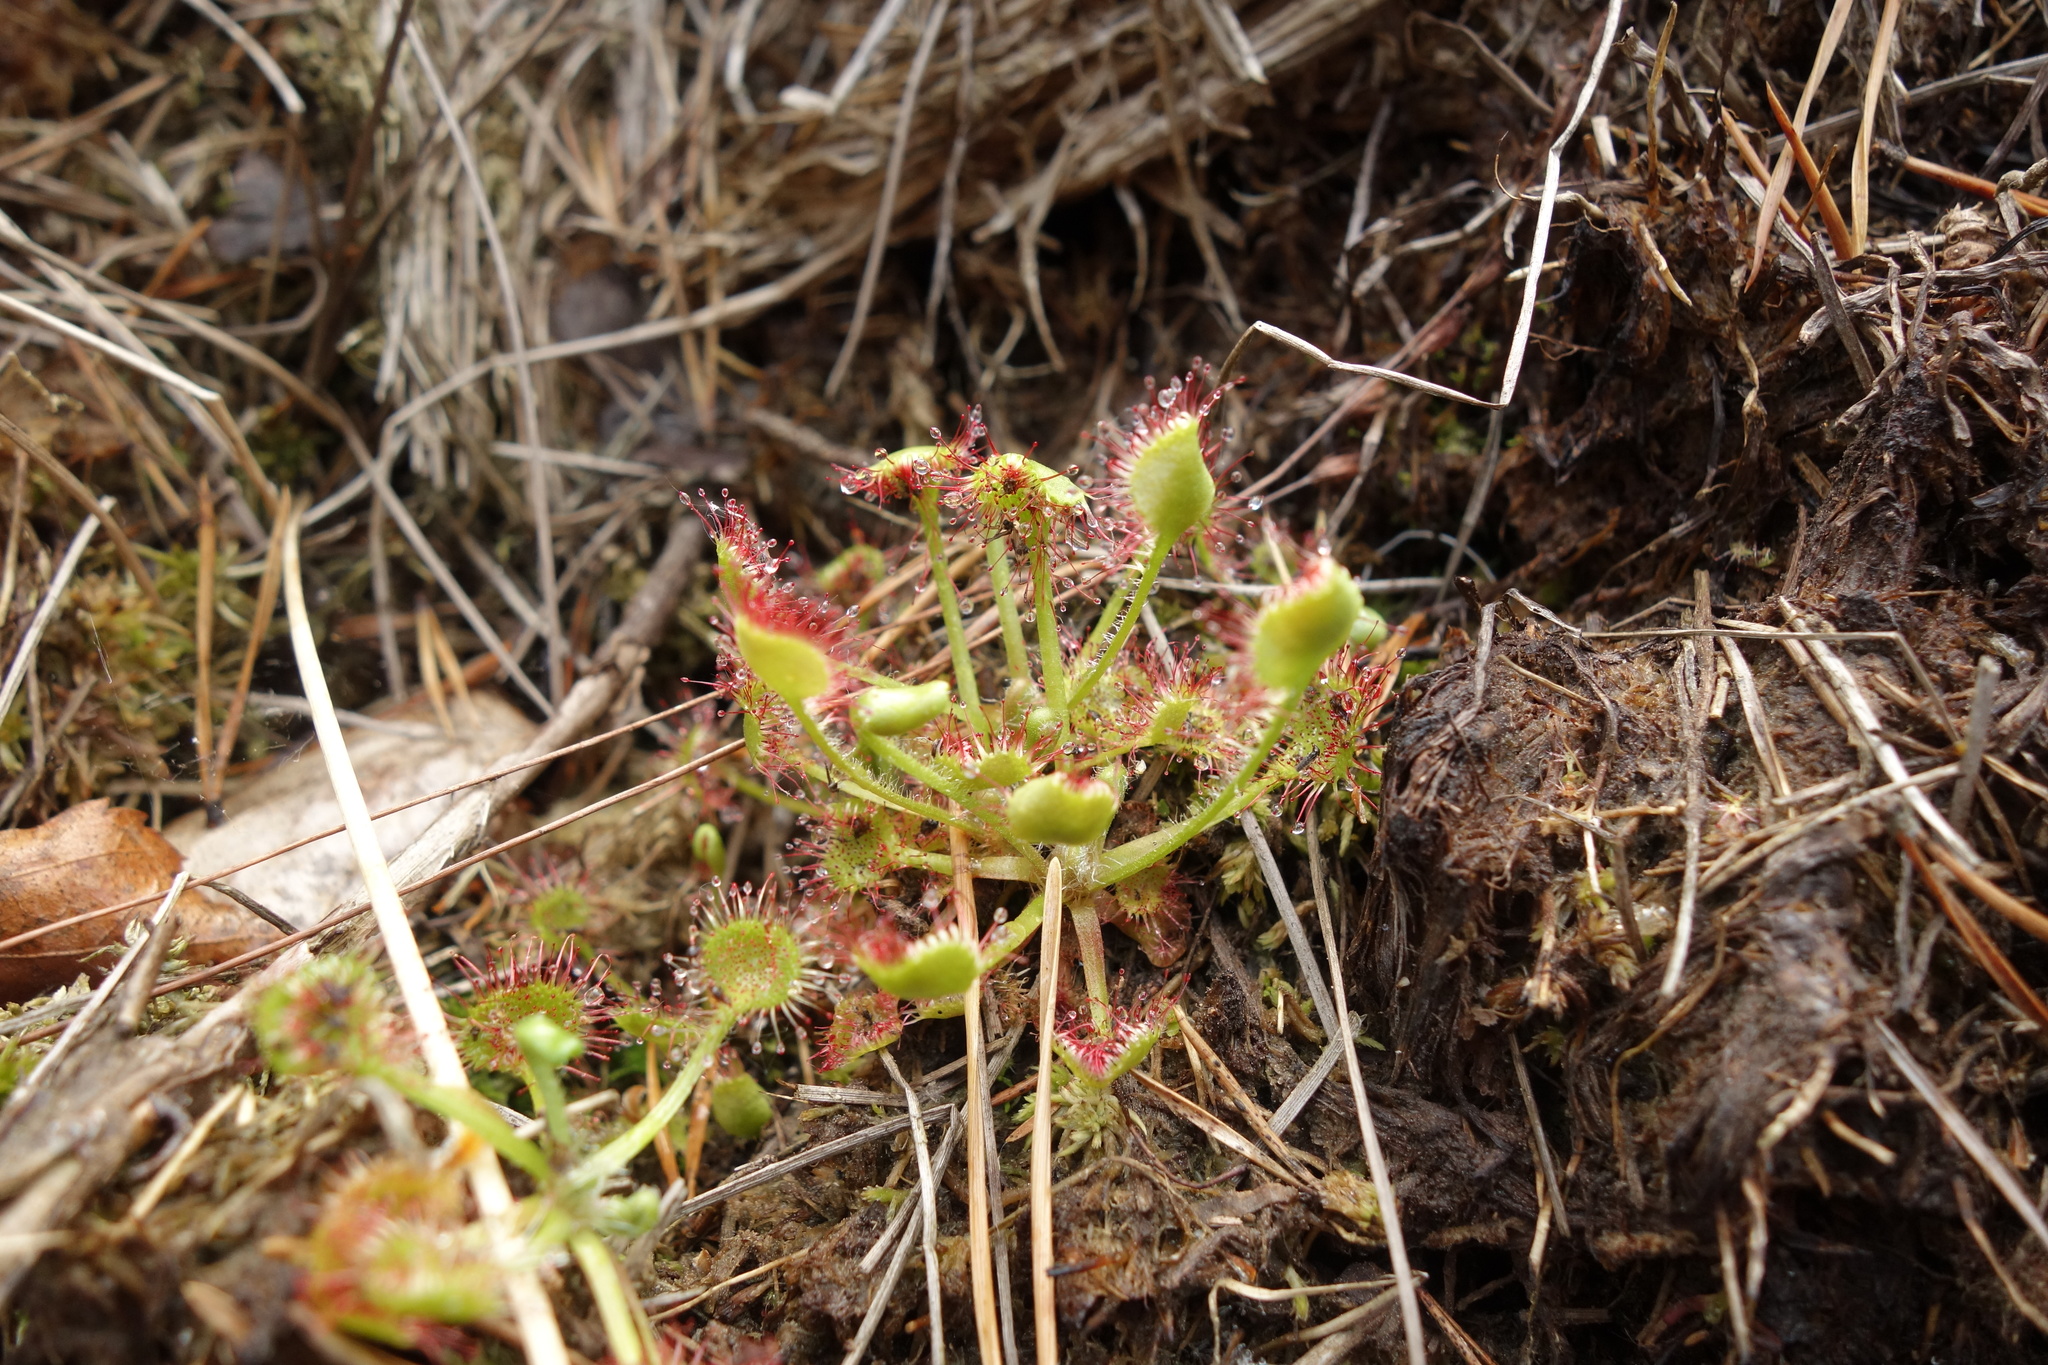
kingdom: Plantae
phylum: Tracheophyta
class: Magnoliopsida
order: Caryophyllales
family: Droseraceae
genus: Drosera
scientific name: Drosera rotundifolia
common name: Round-leaved sundew
